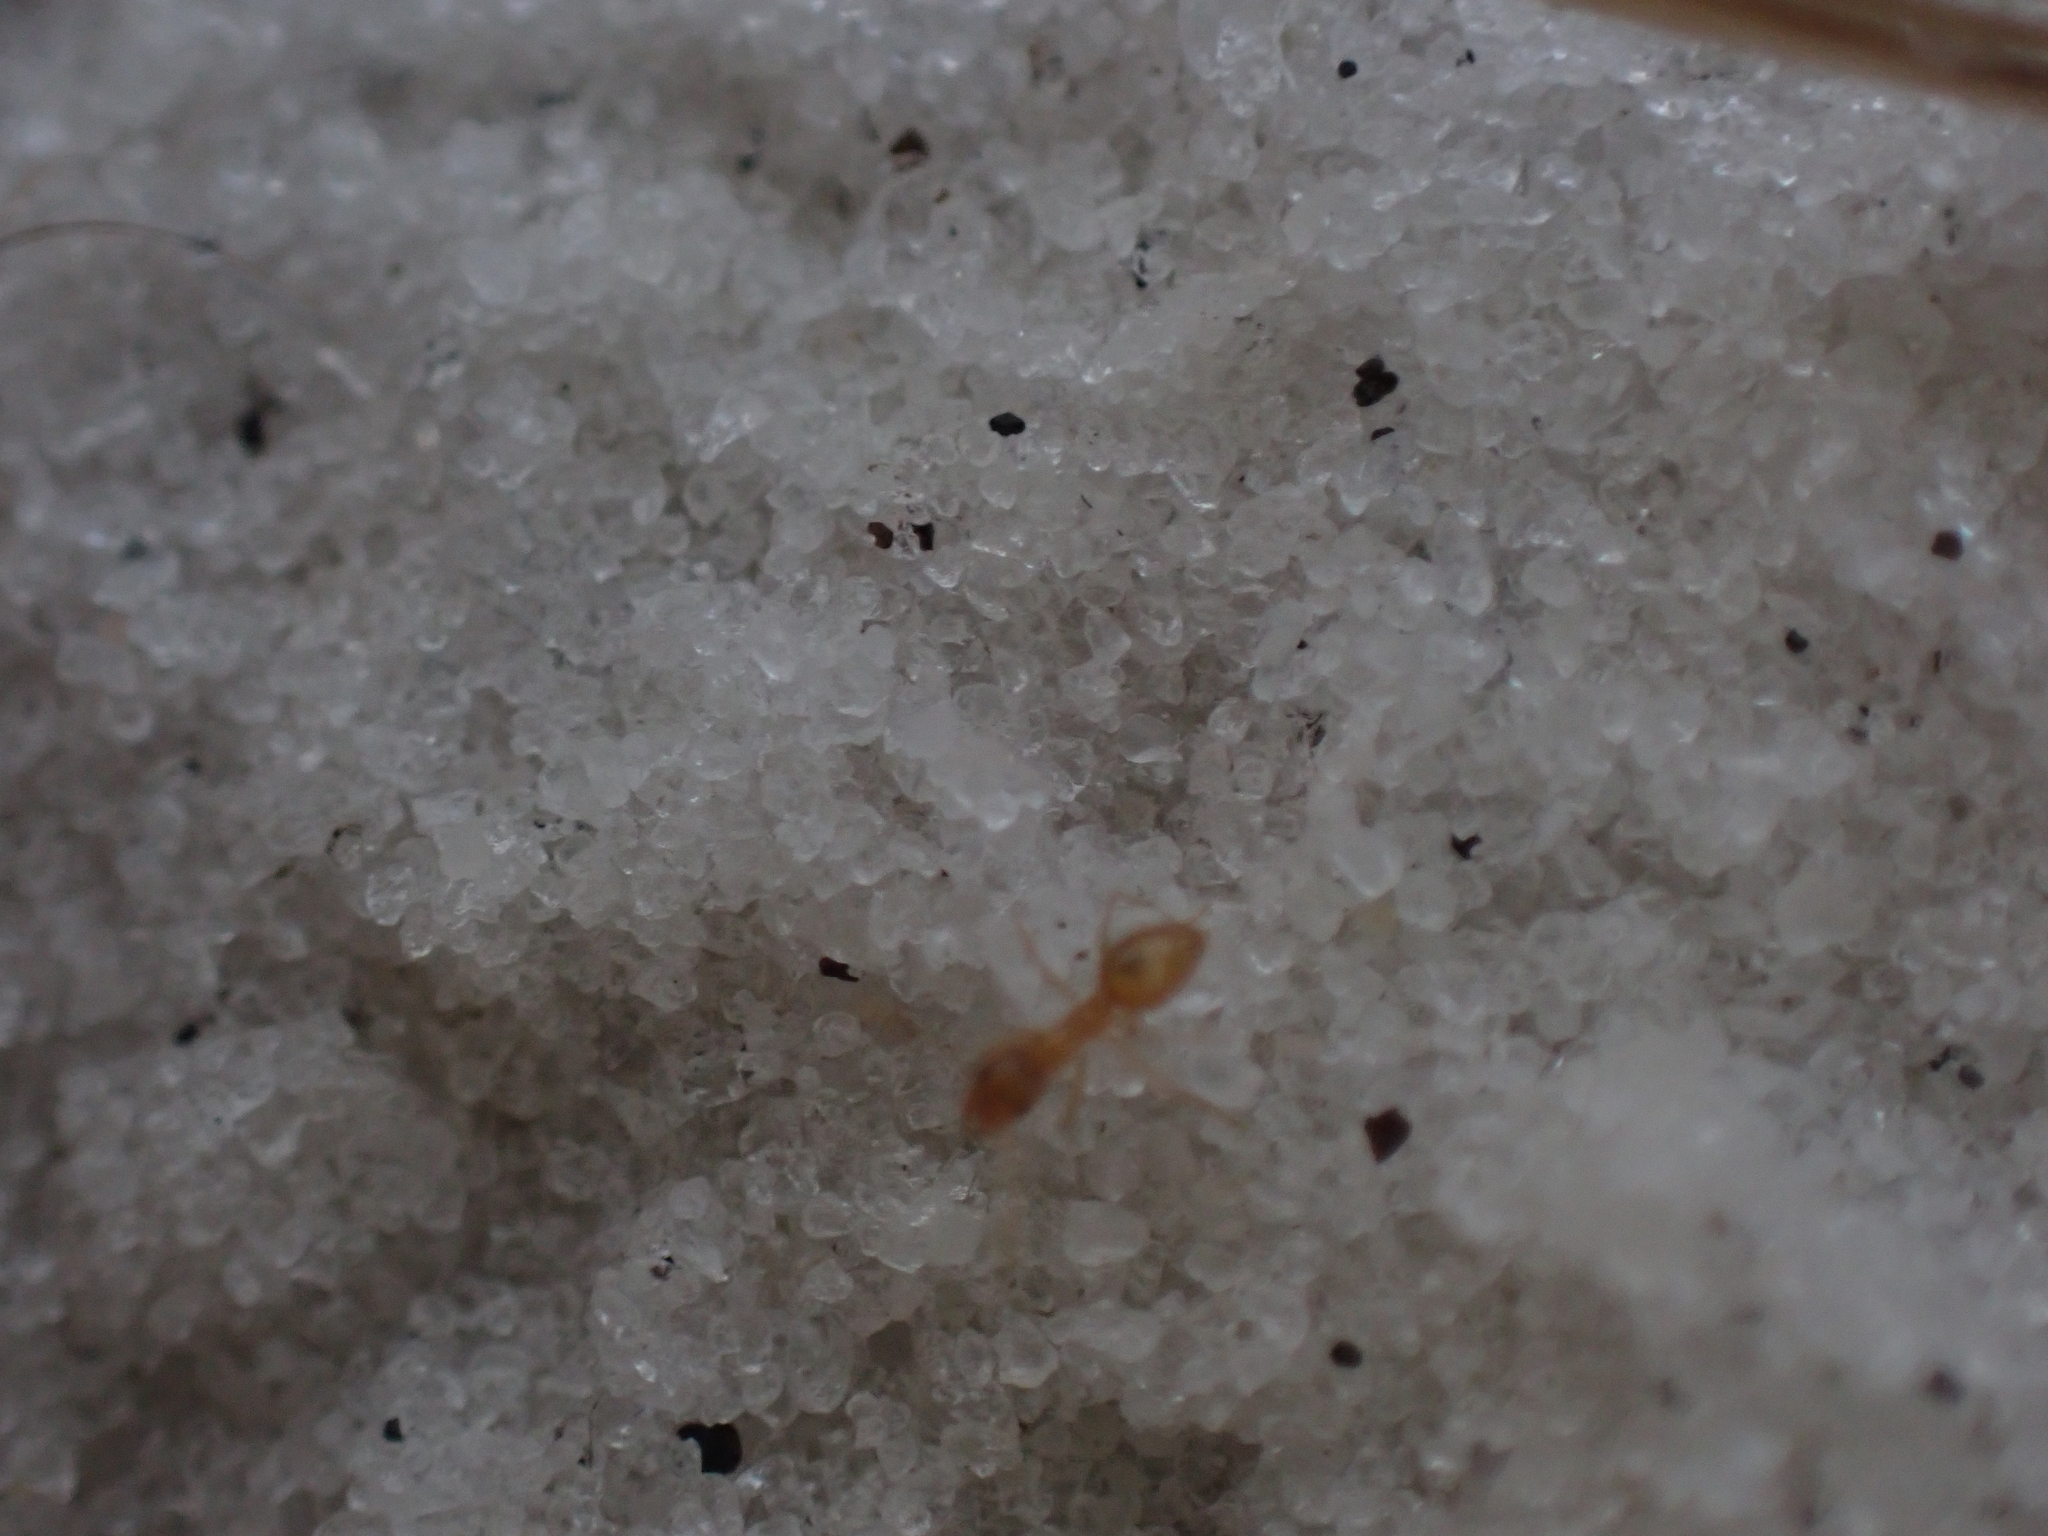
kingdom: Animalia
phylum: Arthropoda
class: Insecta
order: Hymenoptera
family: Formicidae
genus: Nylanderia
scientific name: Nylanderia phantasma
